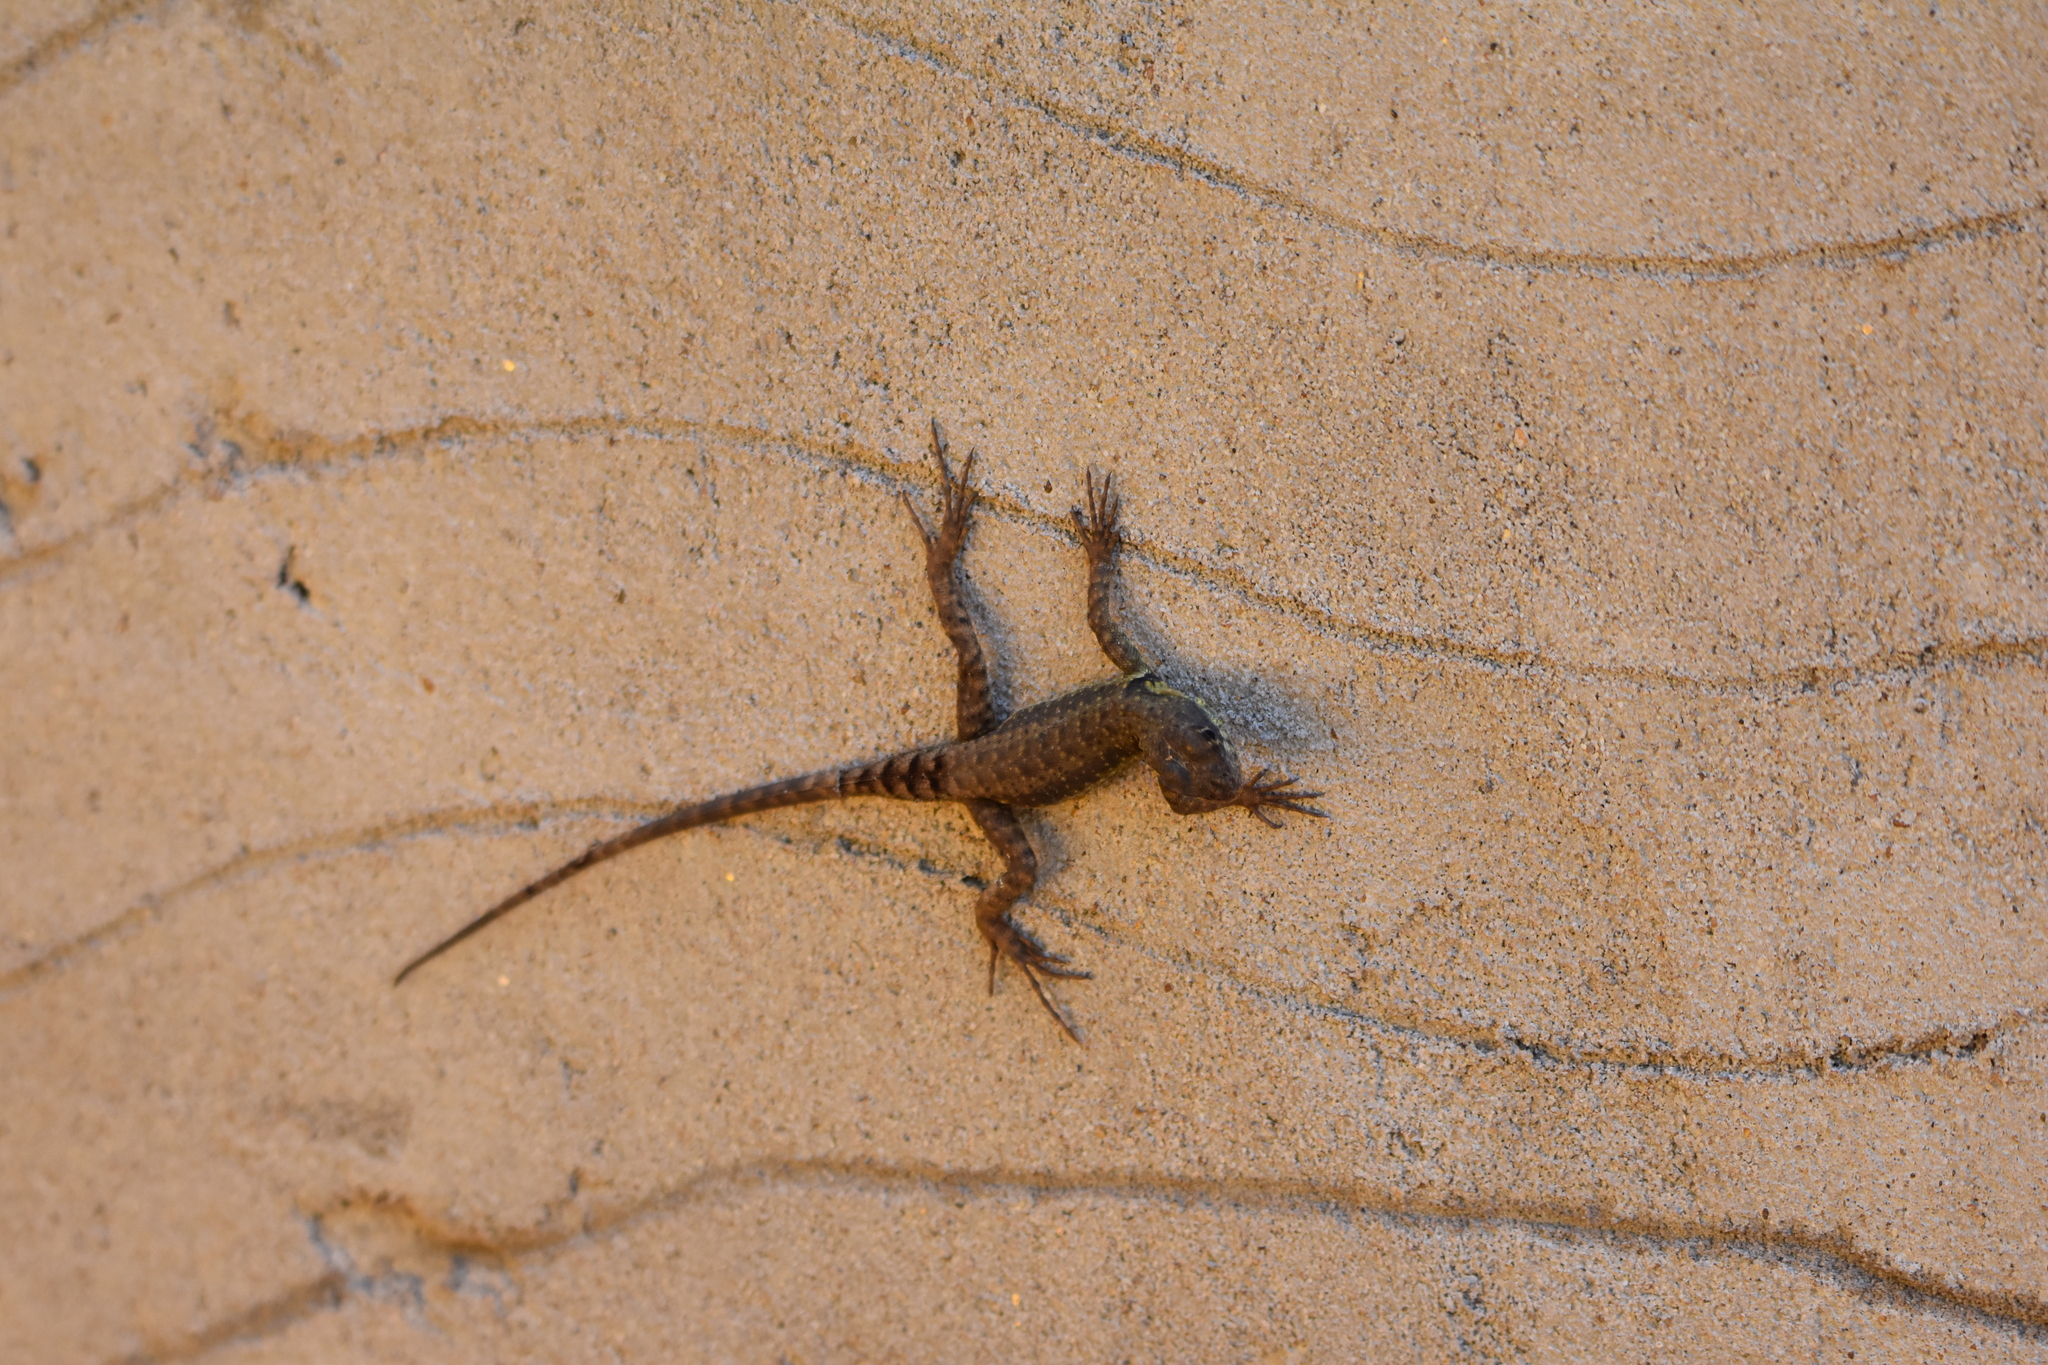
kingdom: Animalia
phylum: Chordata
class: Squamata
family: Tropiduridae
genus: Tropidurus
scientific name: Tropidurus catalanensis
